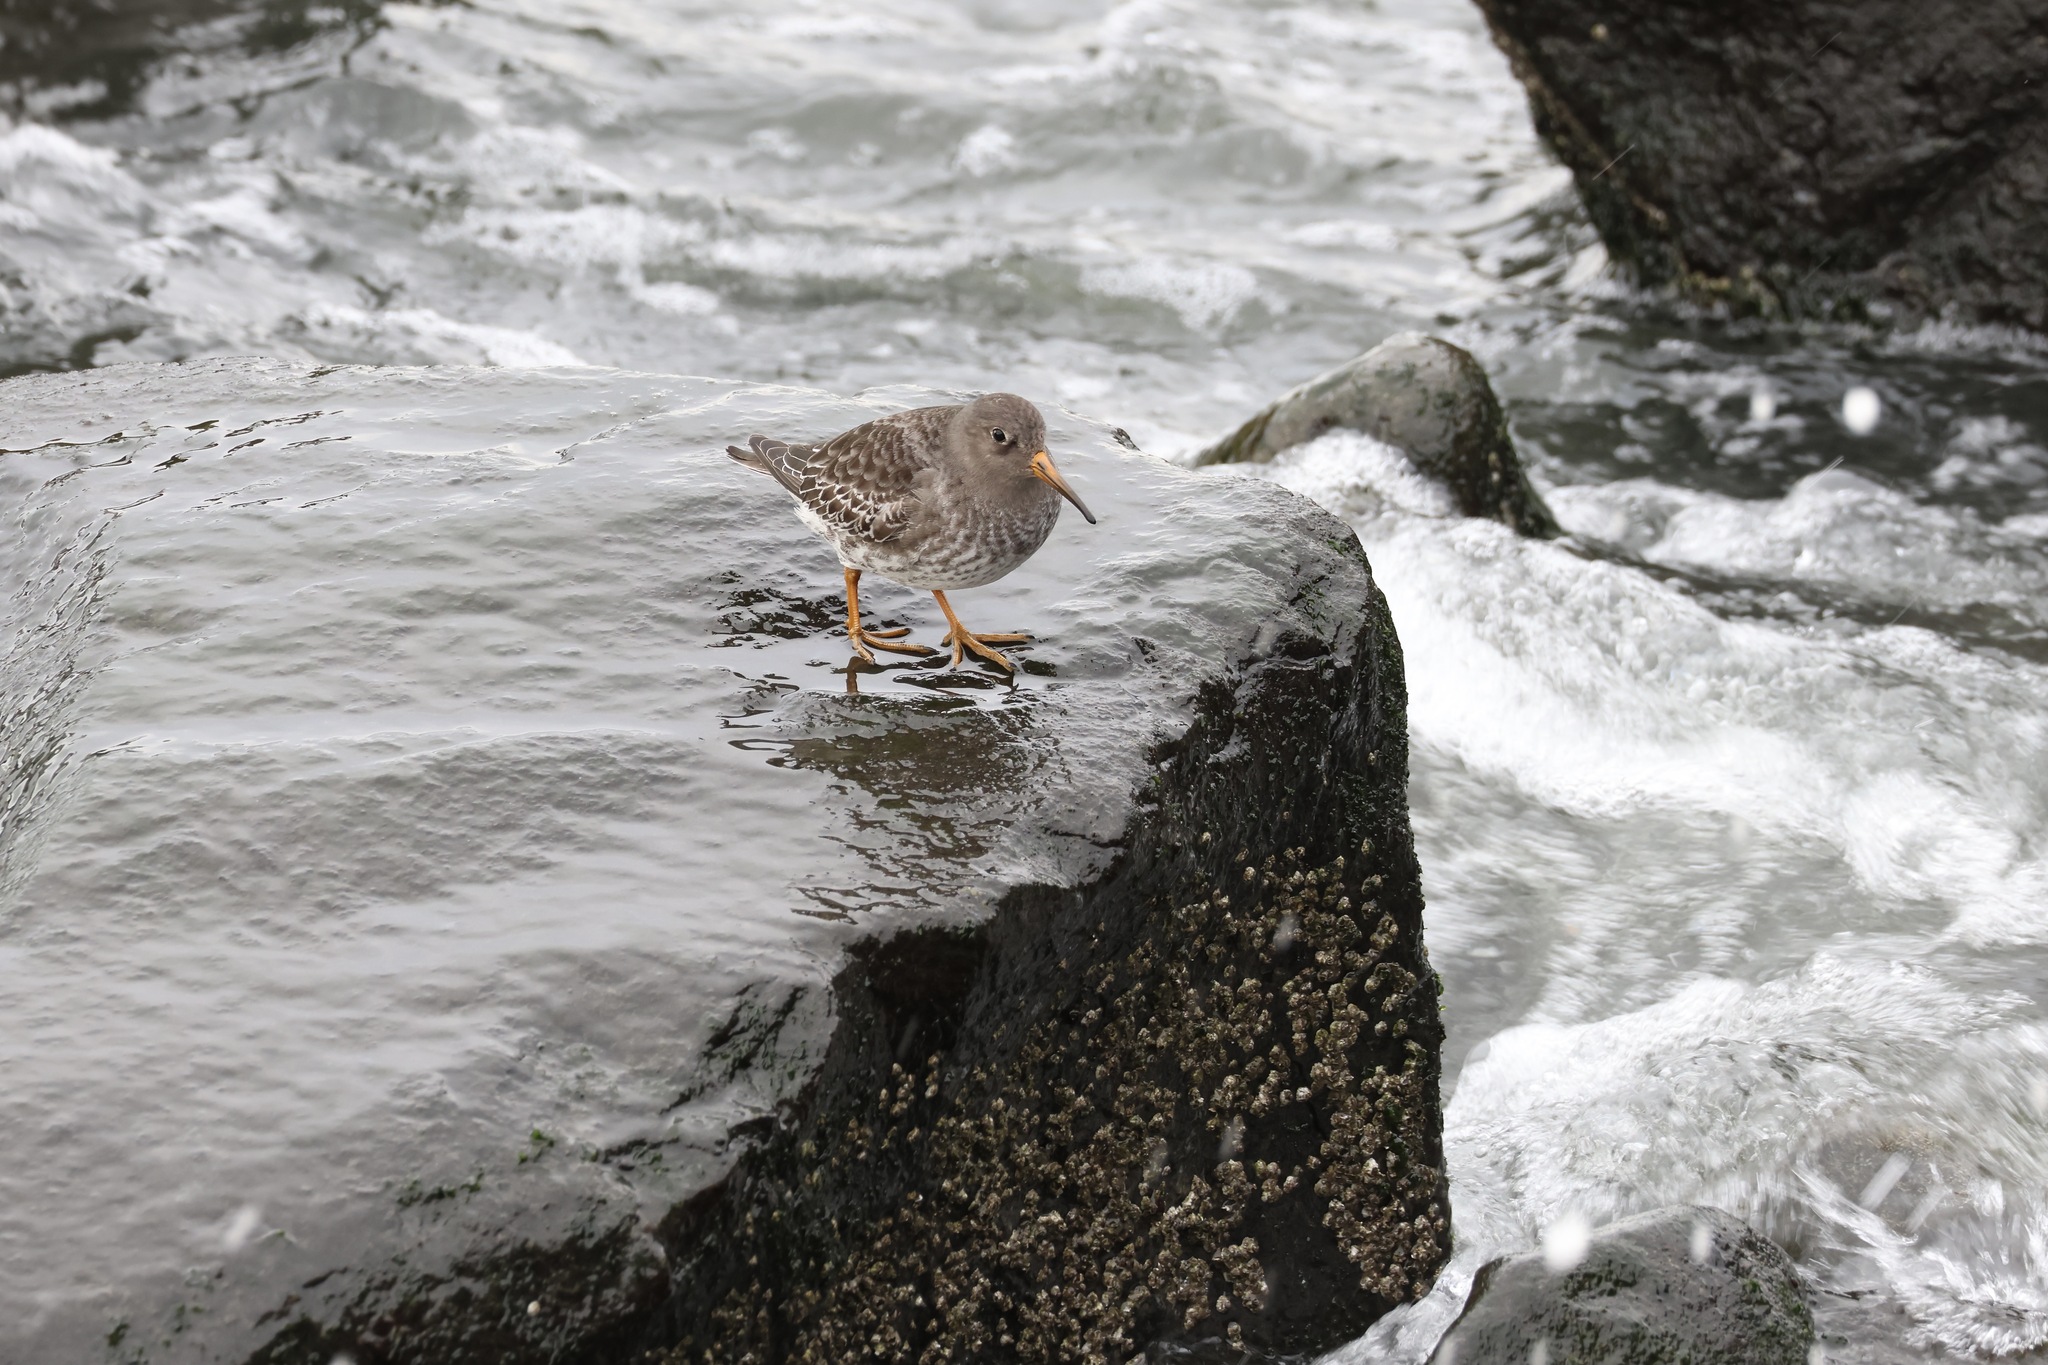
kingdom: Animalia
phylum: Chordata
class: Aves
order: Charadriiformes
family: Scolopacidae
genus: Calidris
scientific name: Calidris maritima
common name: Purple sandpiper
